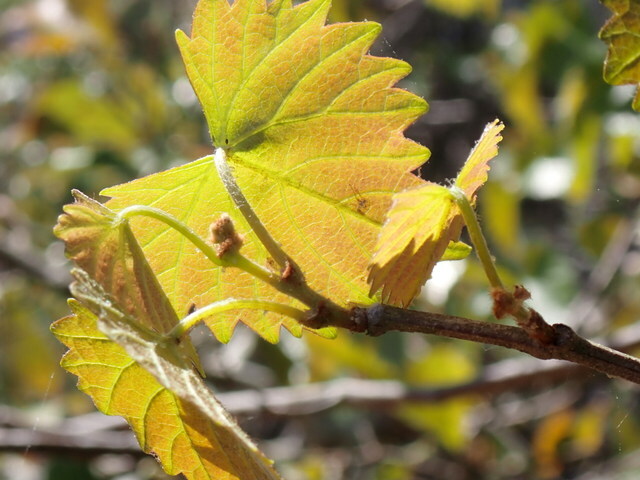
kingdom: Plantae
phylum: Tracheophyta
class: Magnoliopsida
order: Vitales
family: Vitaceae
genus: Vitis
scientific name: Vitis rotundifolia
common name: Muscadine grape
